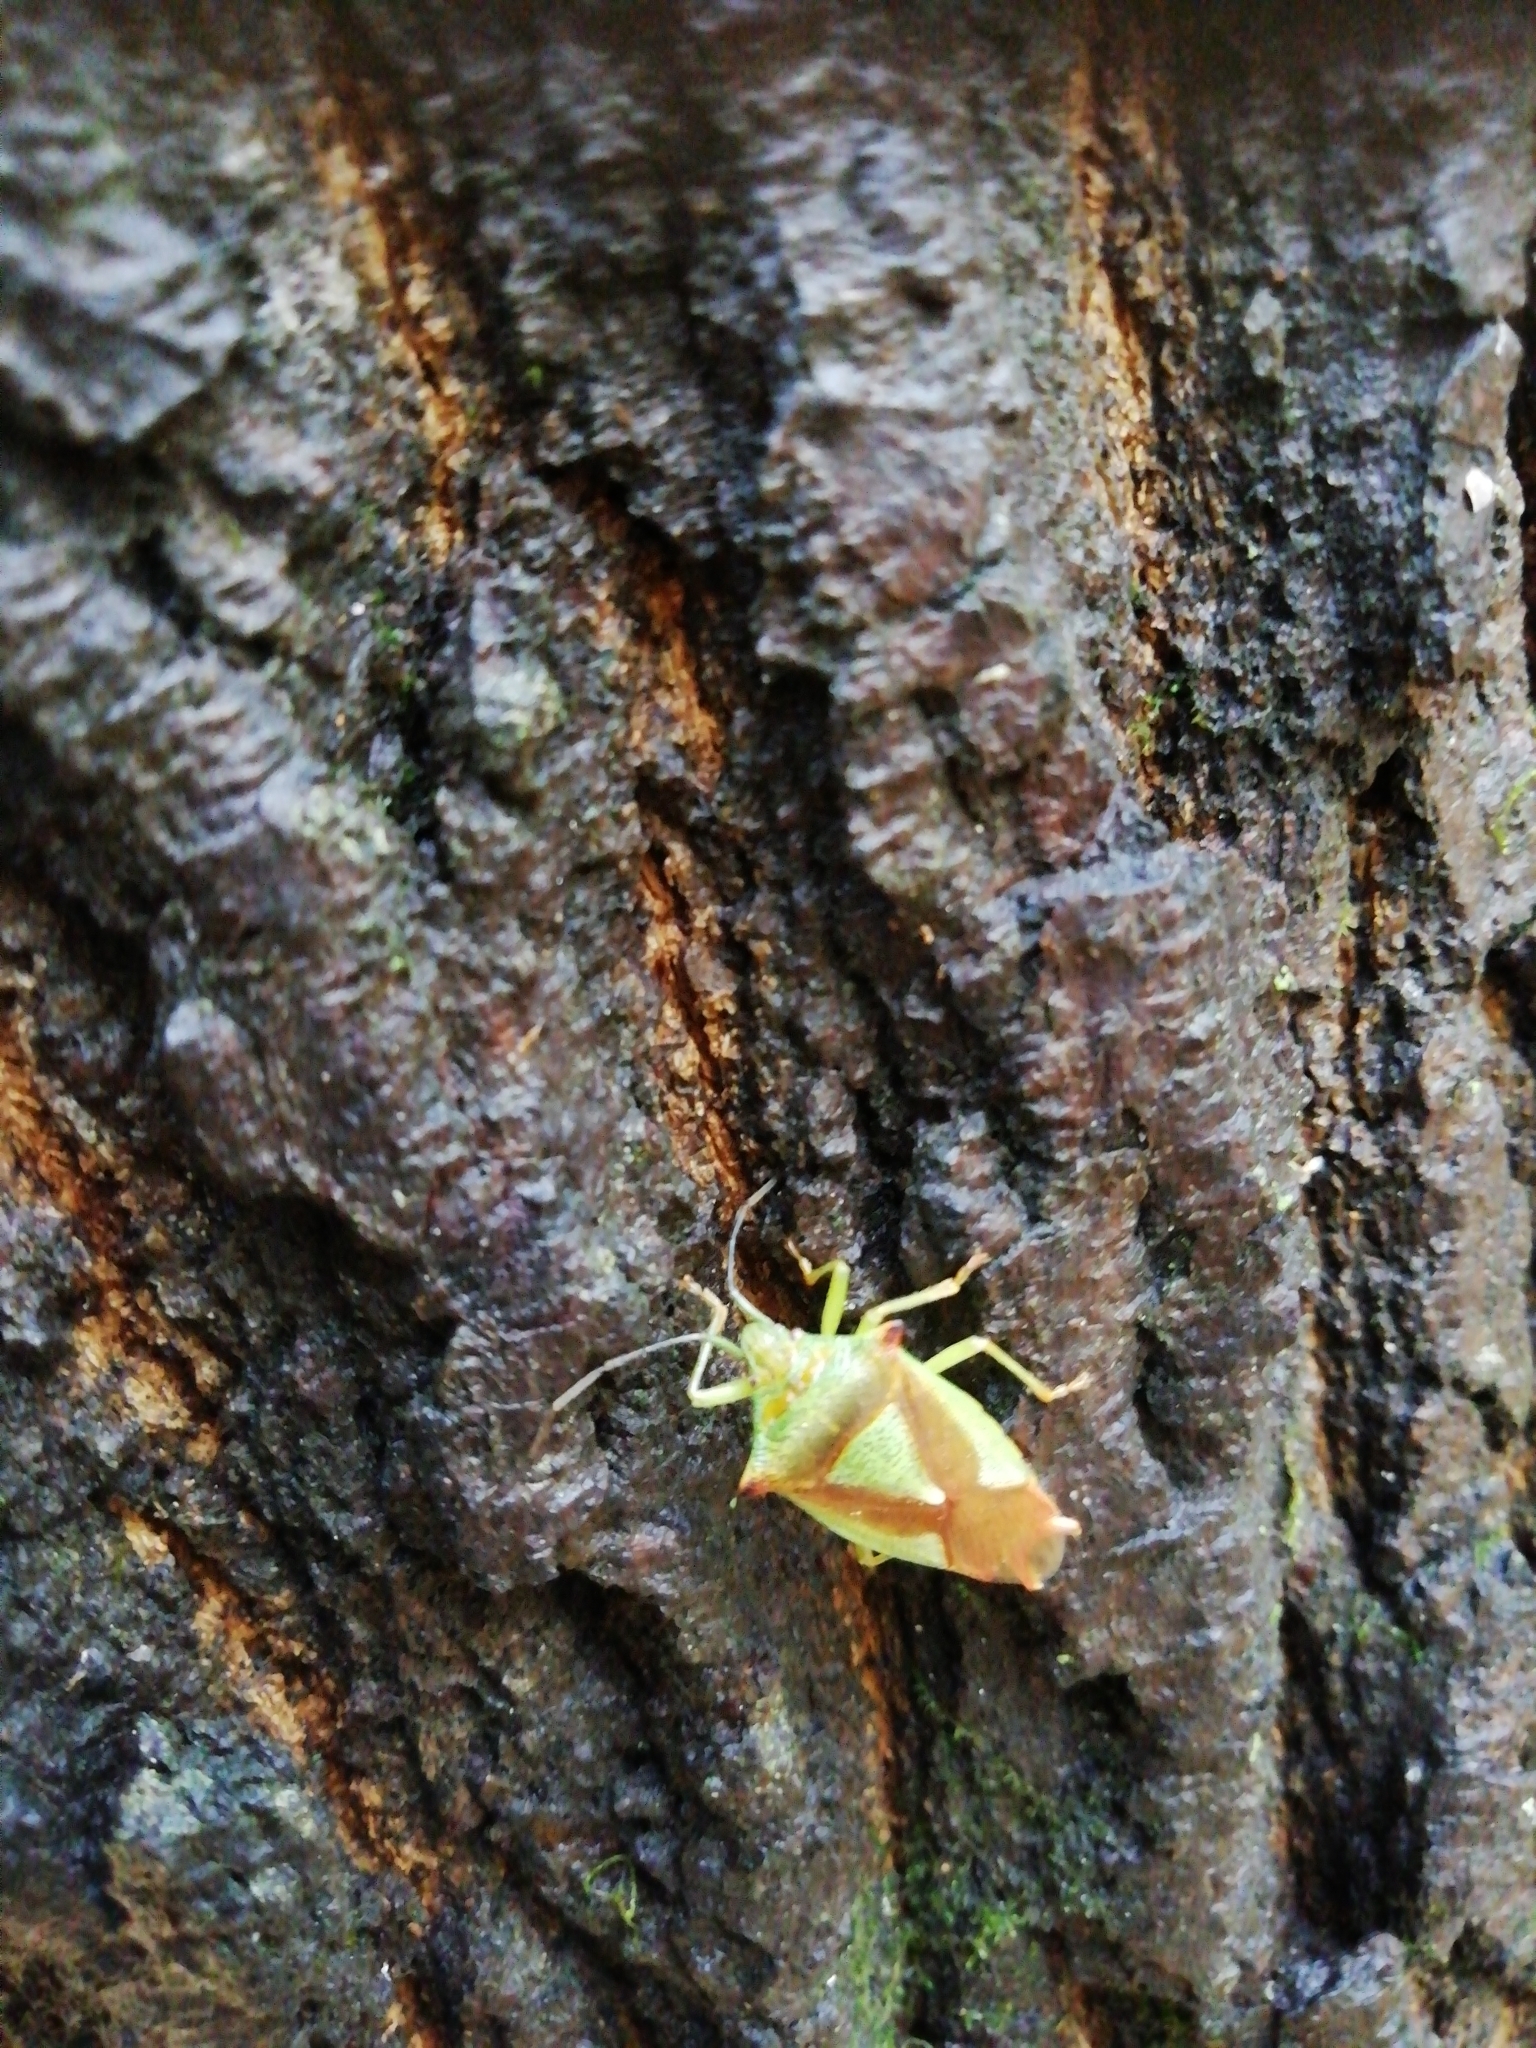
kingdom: Animalia
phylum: Arthropoda
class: Insecta
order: Hemiptera
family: Acanthosomatidae
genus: Acanthosoma
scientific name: Acanthosoma haemorrhoidale
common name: Hawthorn shieldbug
